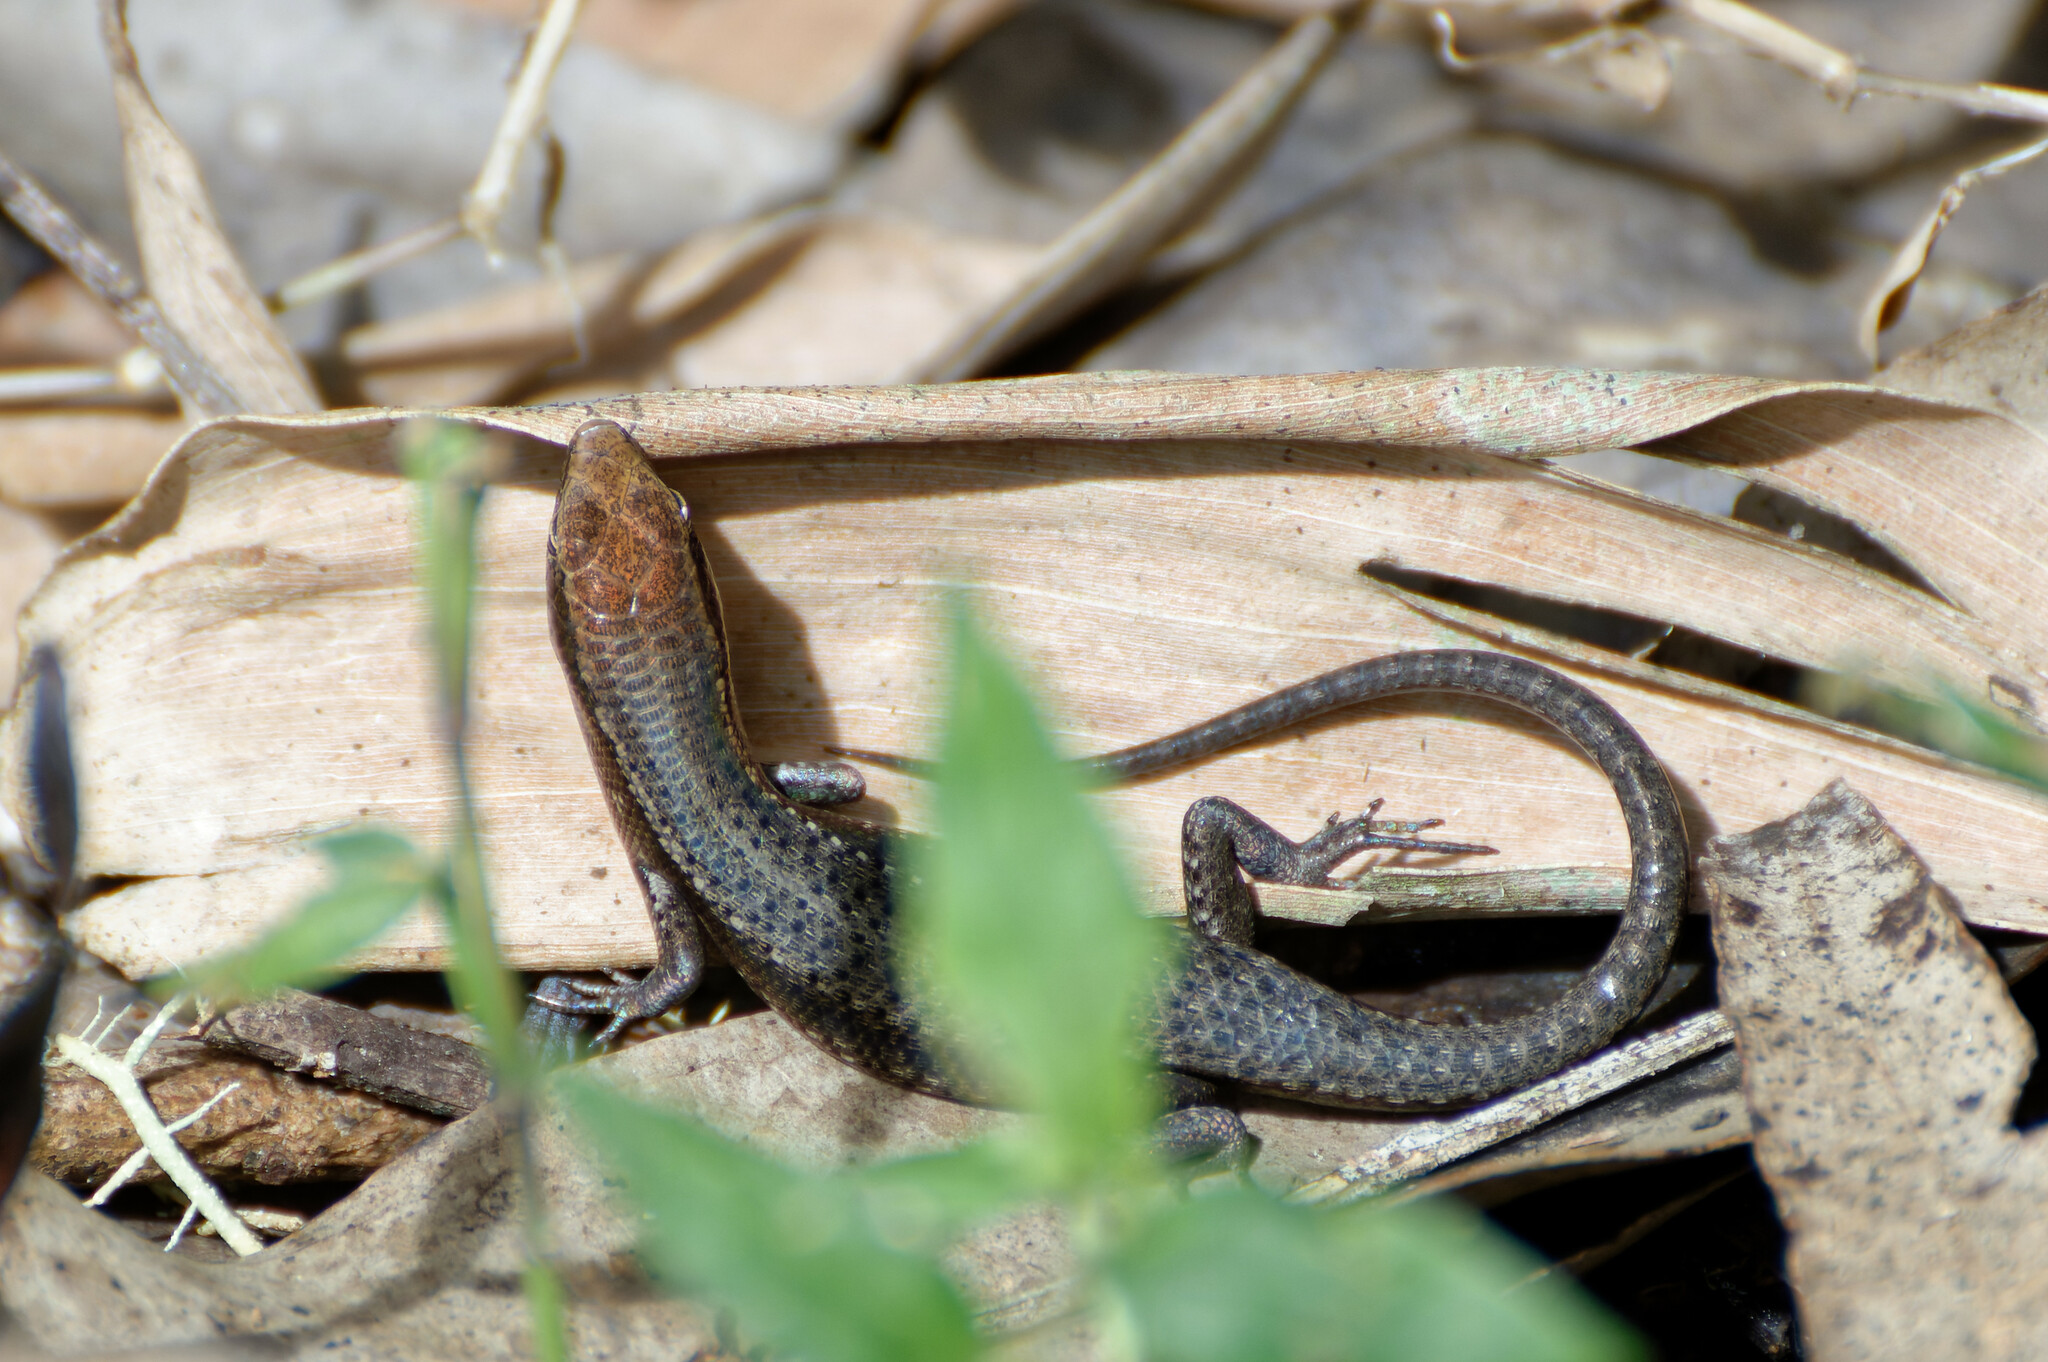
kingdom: Animalia
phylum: Chordata
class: Squamata
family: Scincidae
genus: Carlia
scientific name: Carlia rubrigularis
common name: Northern red-throated skink
